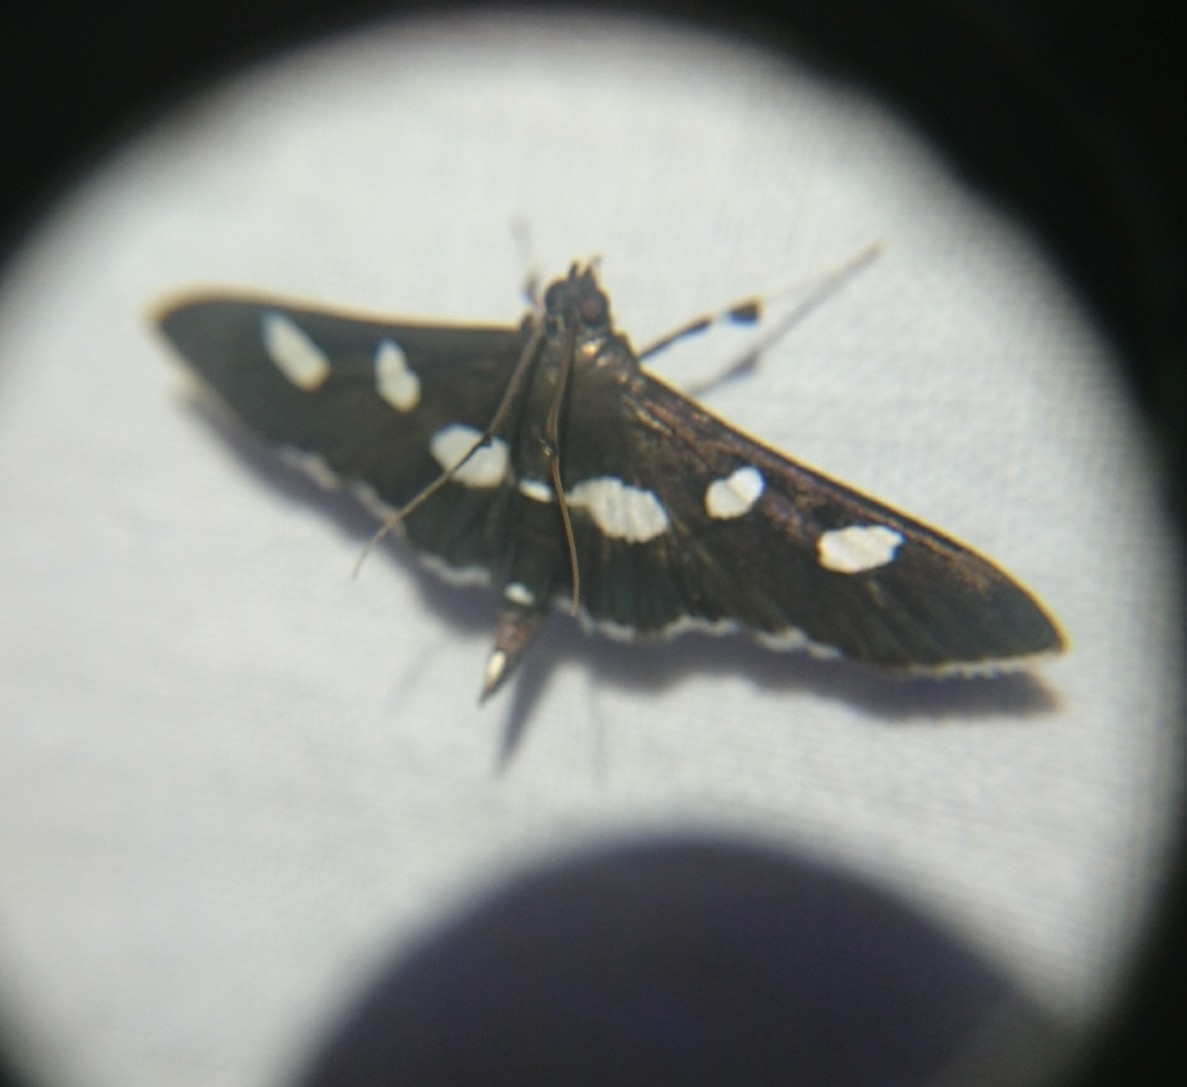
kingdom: Animalia
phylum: Arthropoda
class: Insecta
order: Lepidoptera
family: Crambidae
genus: Desmia
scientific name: Desmia funeralis
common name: Grape leaf folder moth
